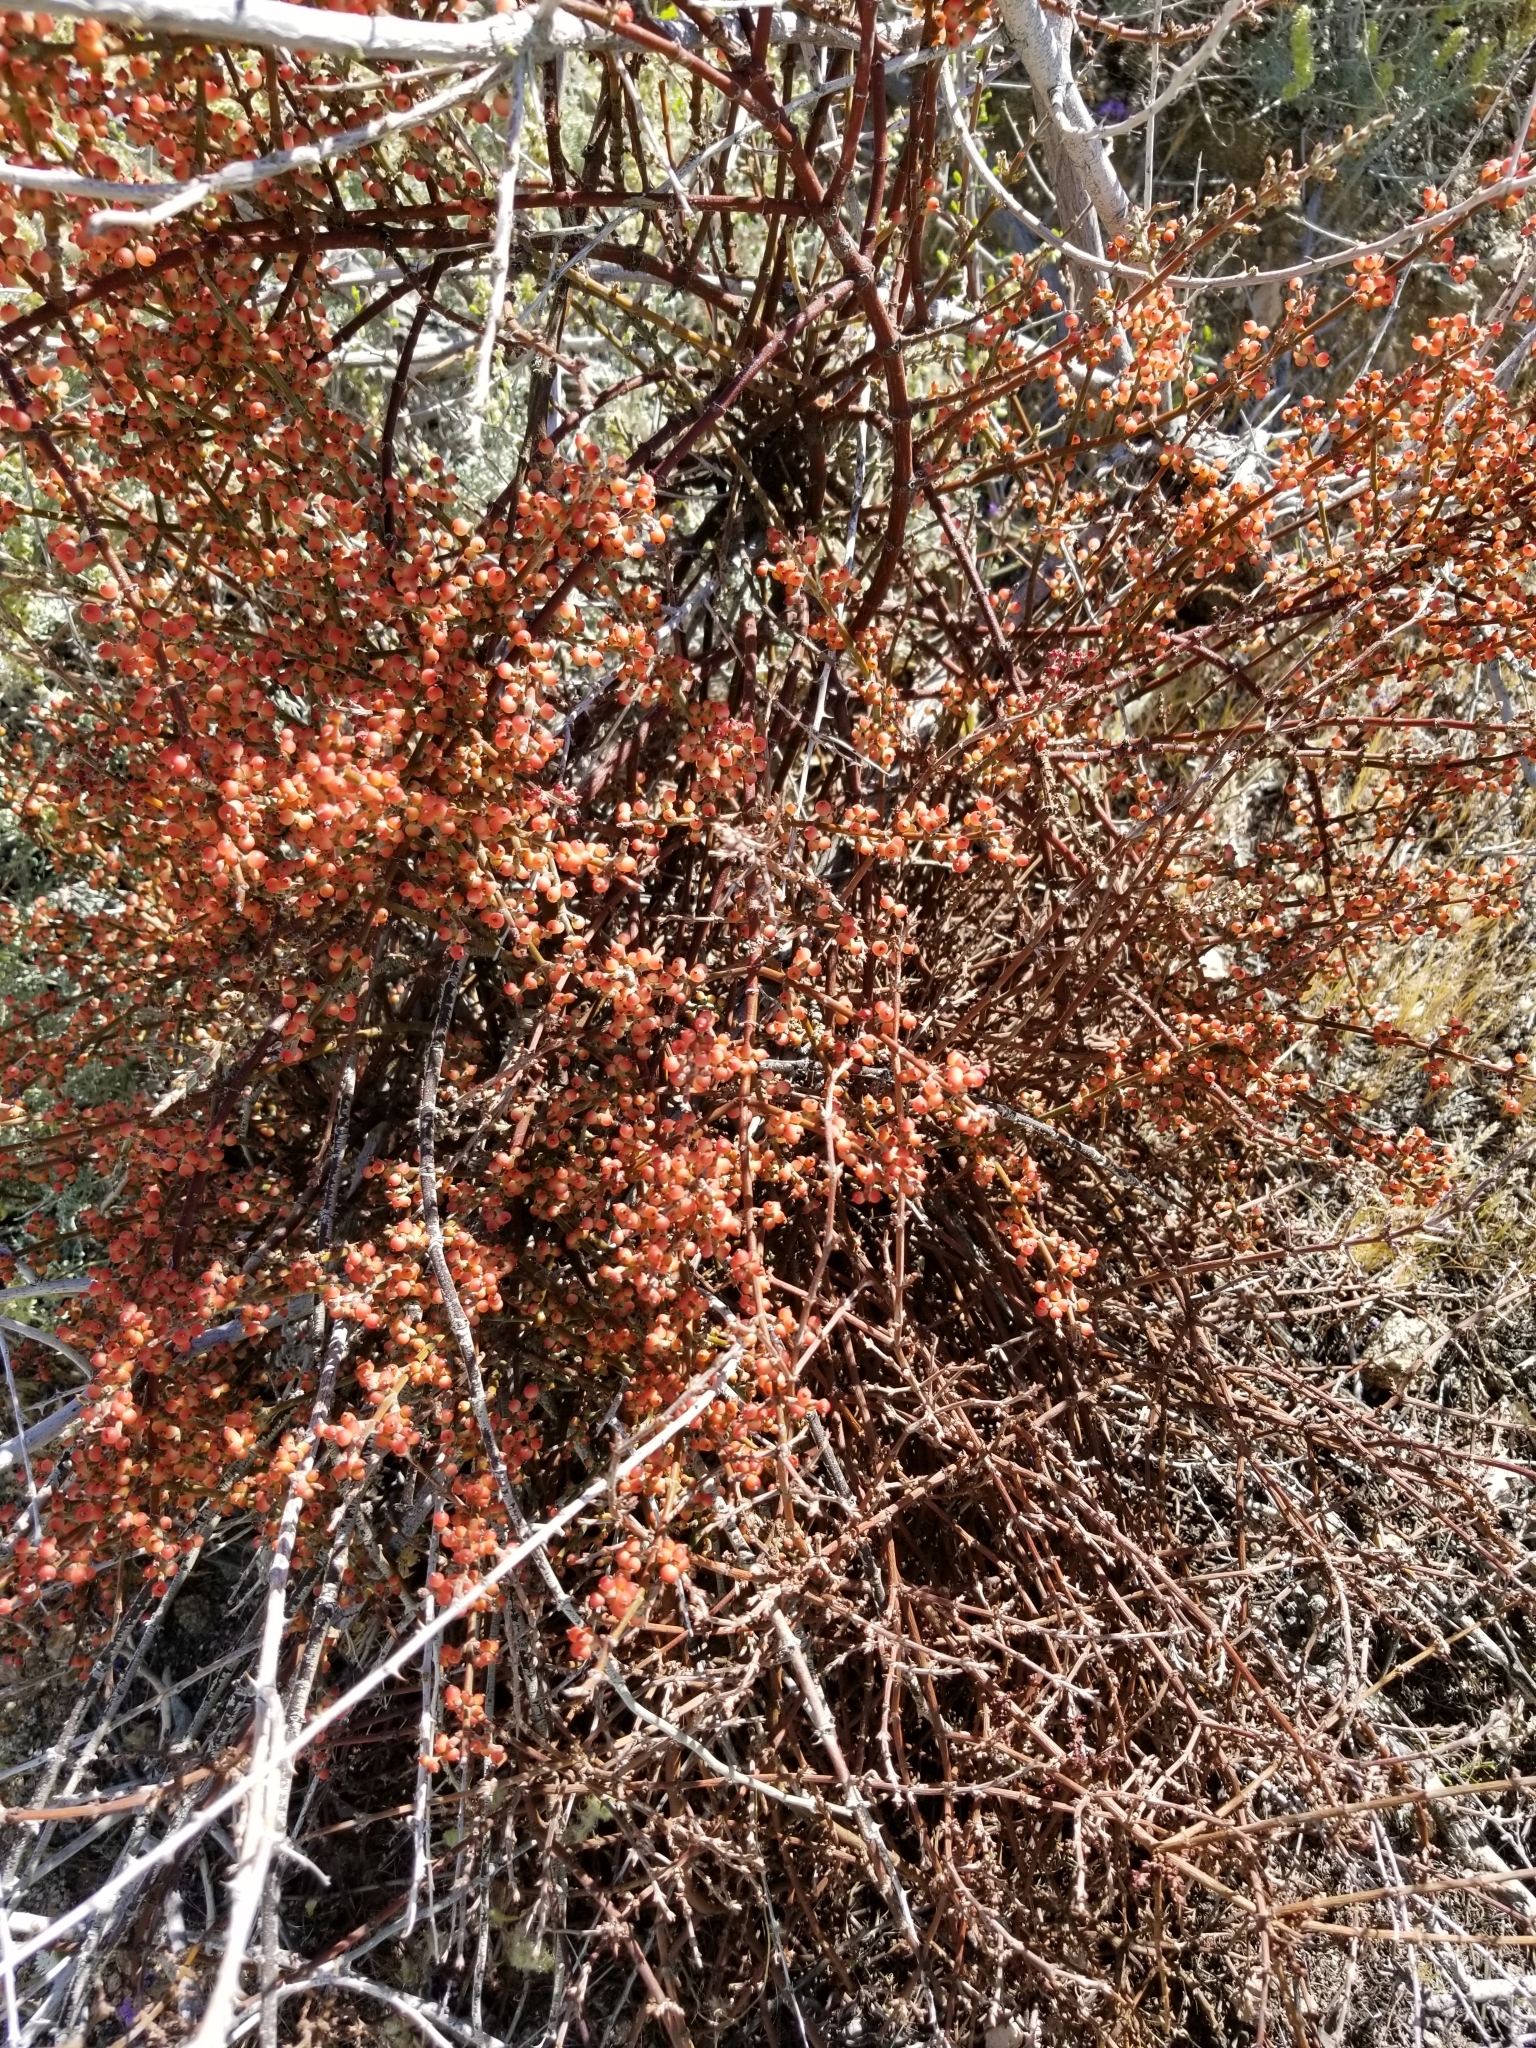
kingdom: Plantae
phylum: Tracheophyta
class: Magnoliopsida
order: Santalales
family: Viscaceae
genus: Phoradendron
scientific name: Phoradendron californicum
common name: Acacia mistletoe
